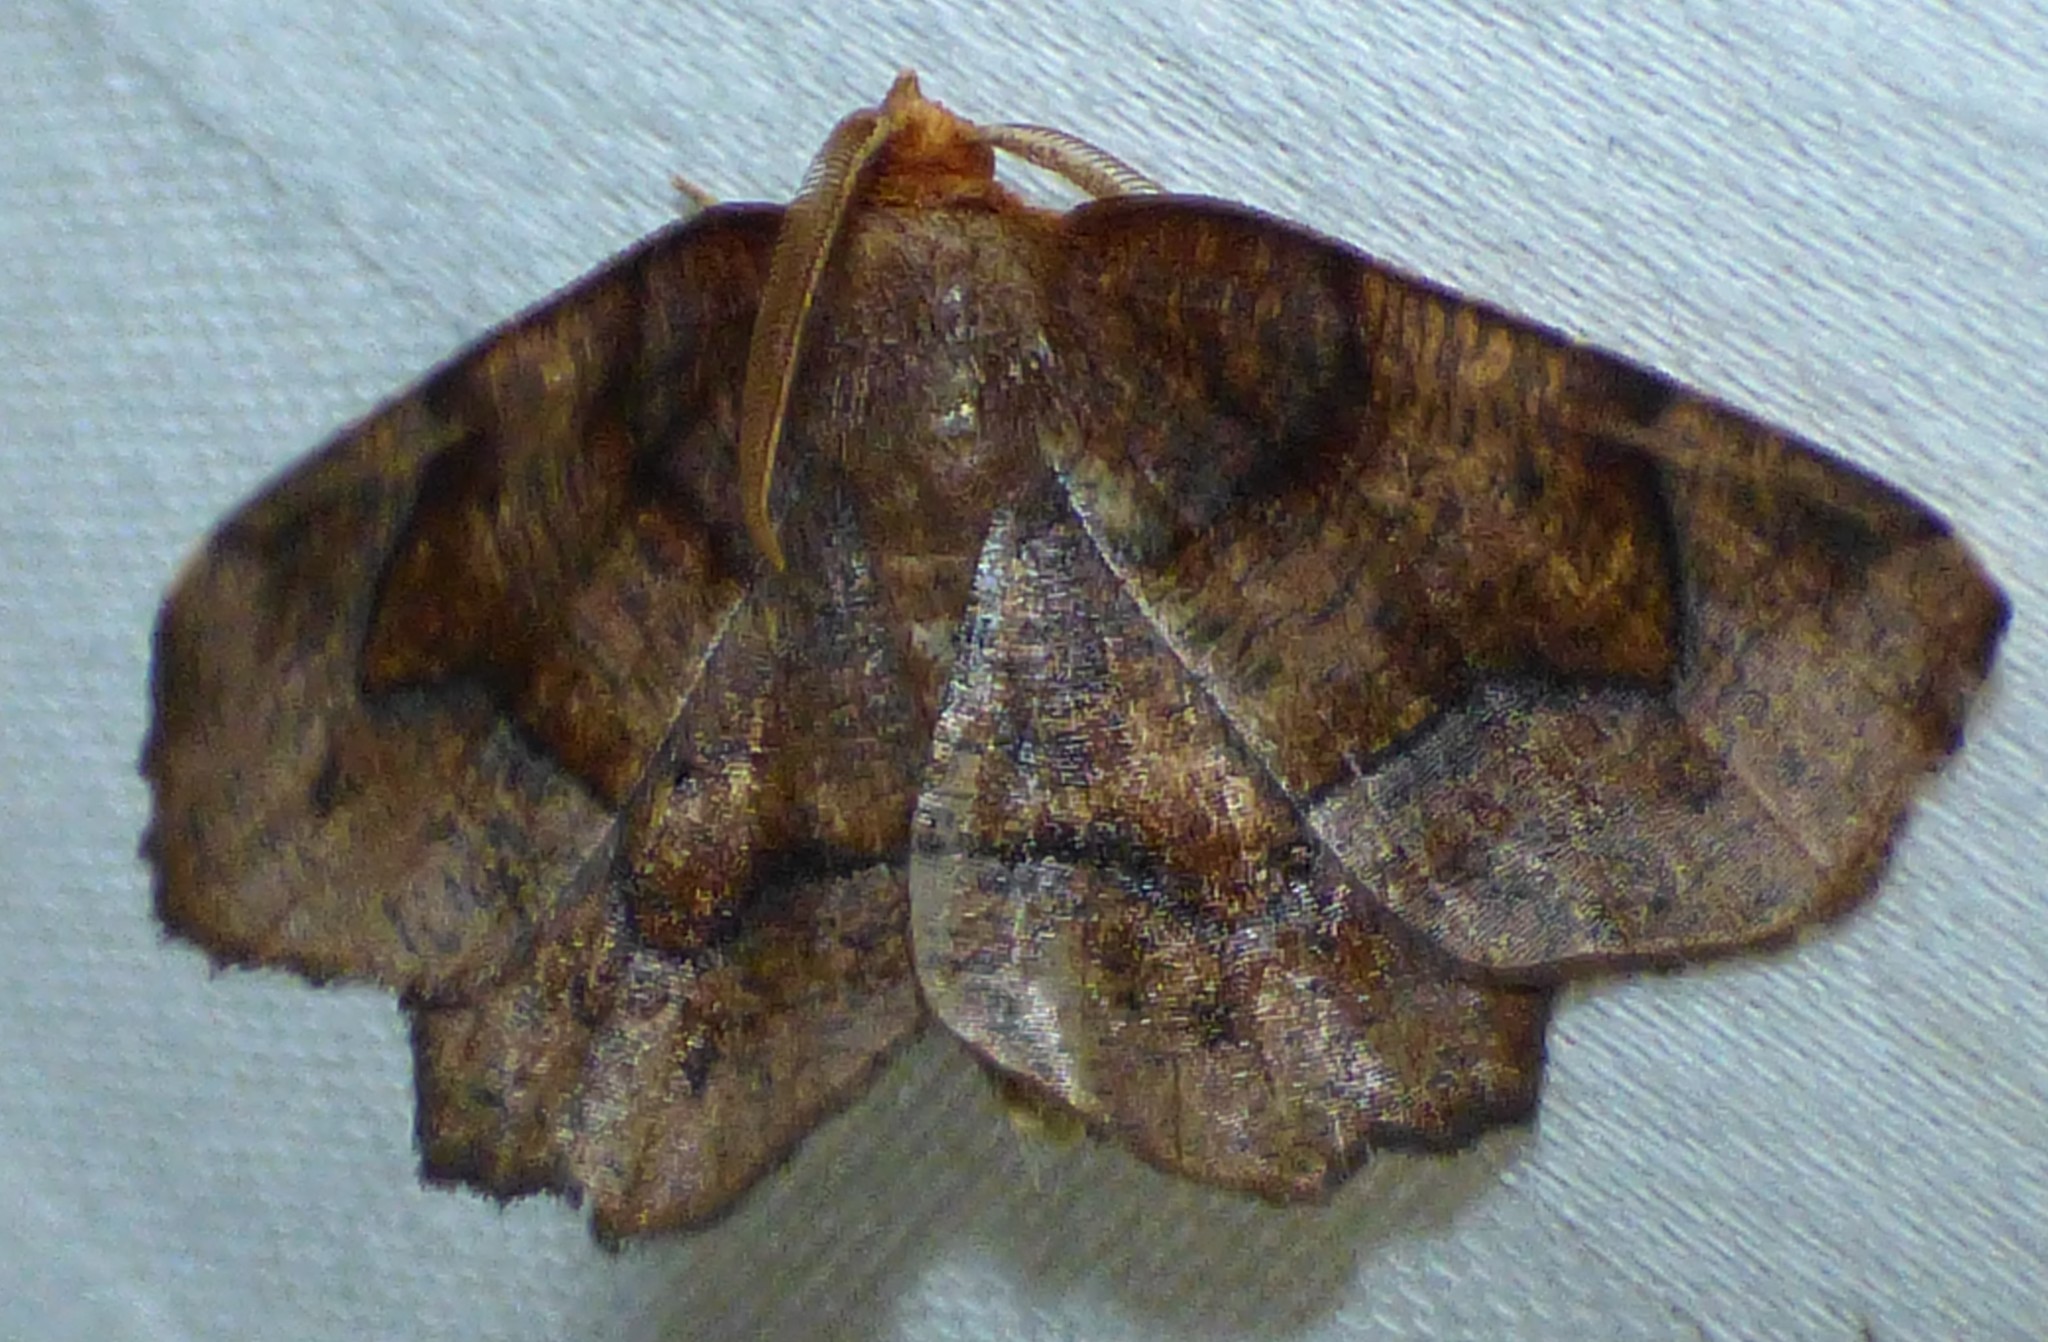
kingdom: Animalia
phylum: Arthropoda
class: Insecta
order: Lepidoptera
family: Geometridae
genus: Metarranthis
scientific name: Metarranthis homuraria
